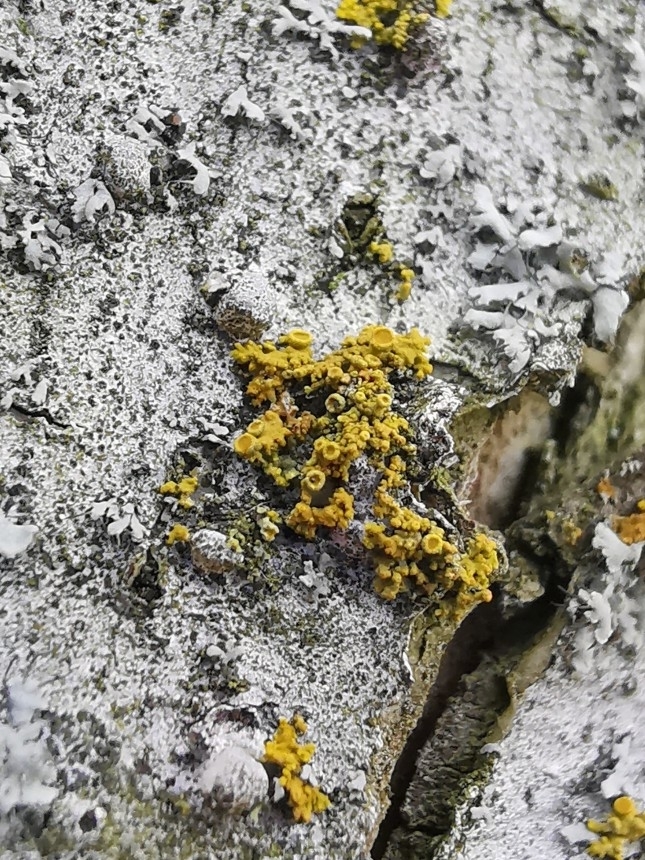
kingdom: Fungi
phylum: Ascomycota
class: Lecanoromycetes
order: Teloschistales
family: Teloschistaceae
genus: Polycauliona
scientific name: Polycauliona polycarpa
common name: Pin-cushion sunburst lichen
